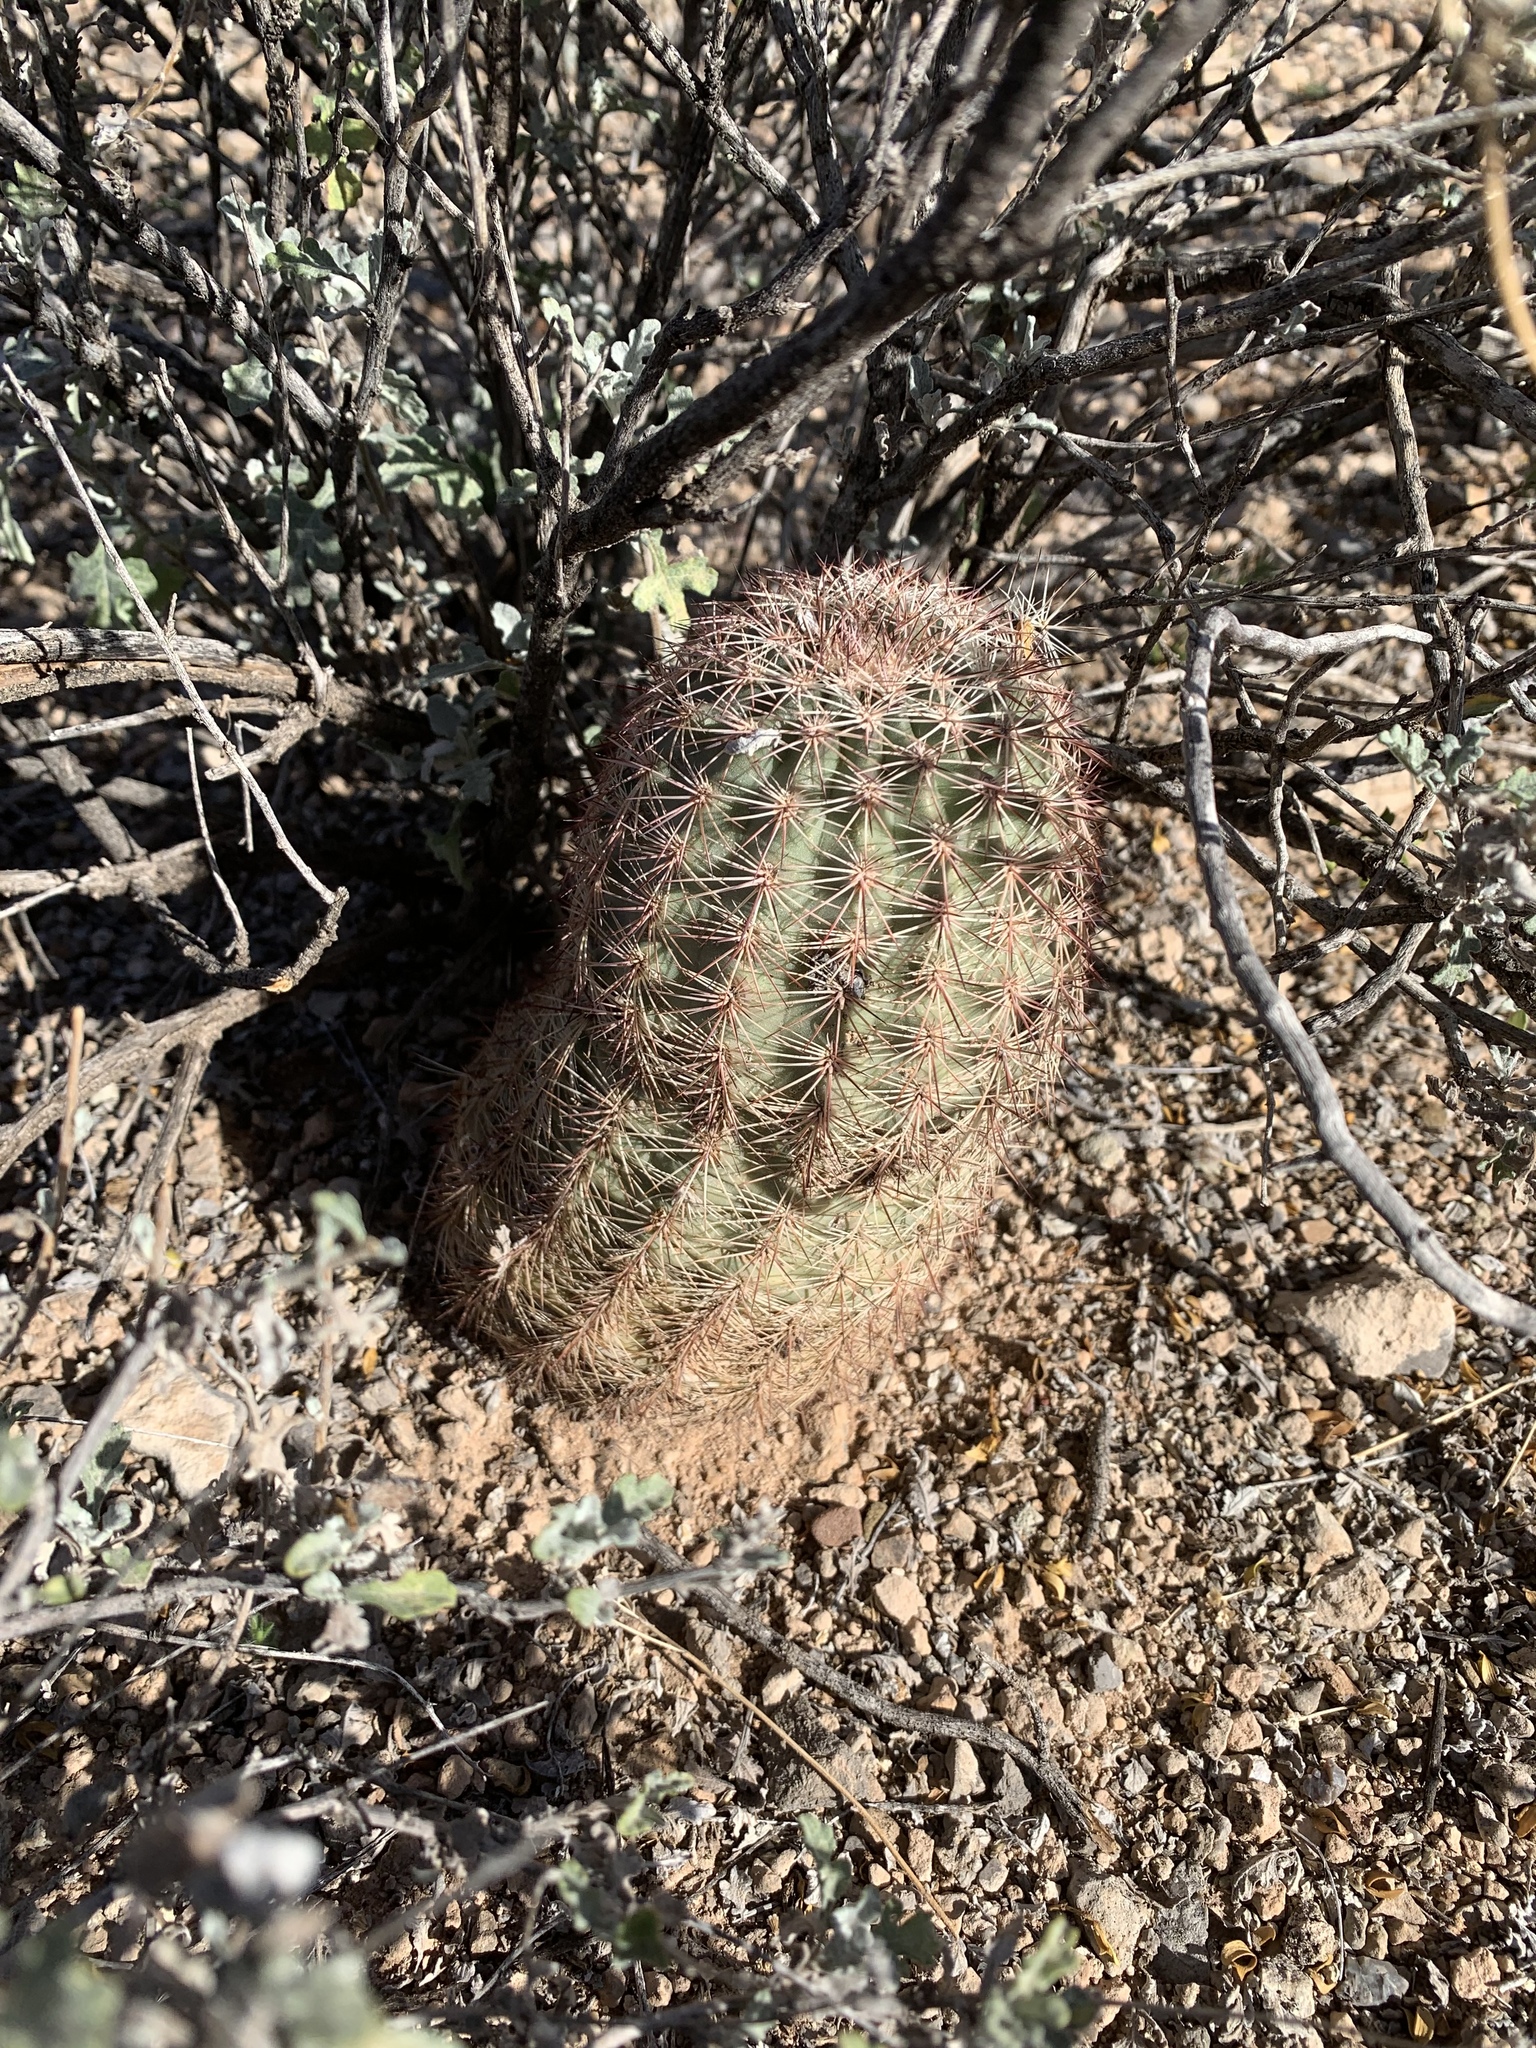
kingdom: Plantae
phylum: Tracheophyta
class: Magnoliopsida
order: Caryophyllales
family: Cactaceae
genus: Echinocereus
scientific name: Echinocereus dasyacanthus
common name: Spiny hedgehog cactus
